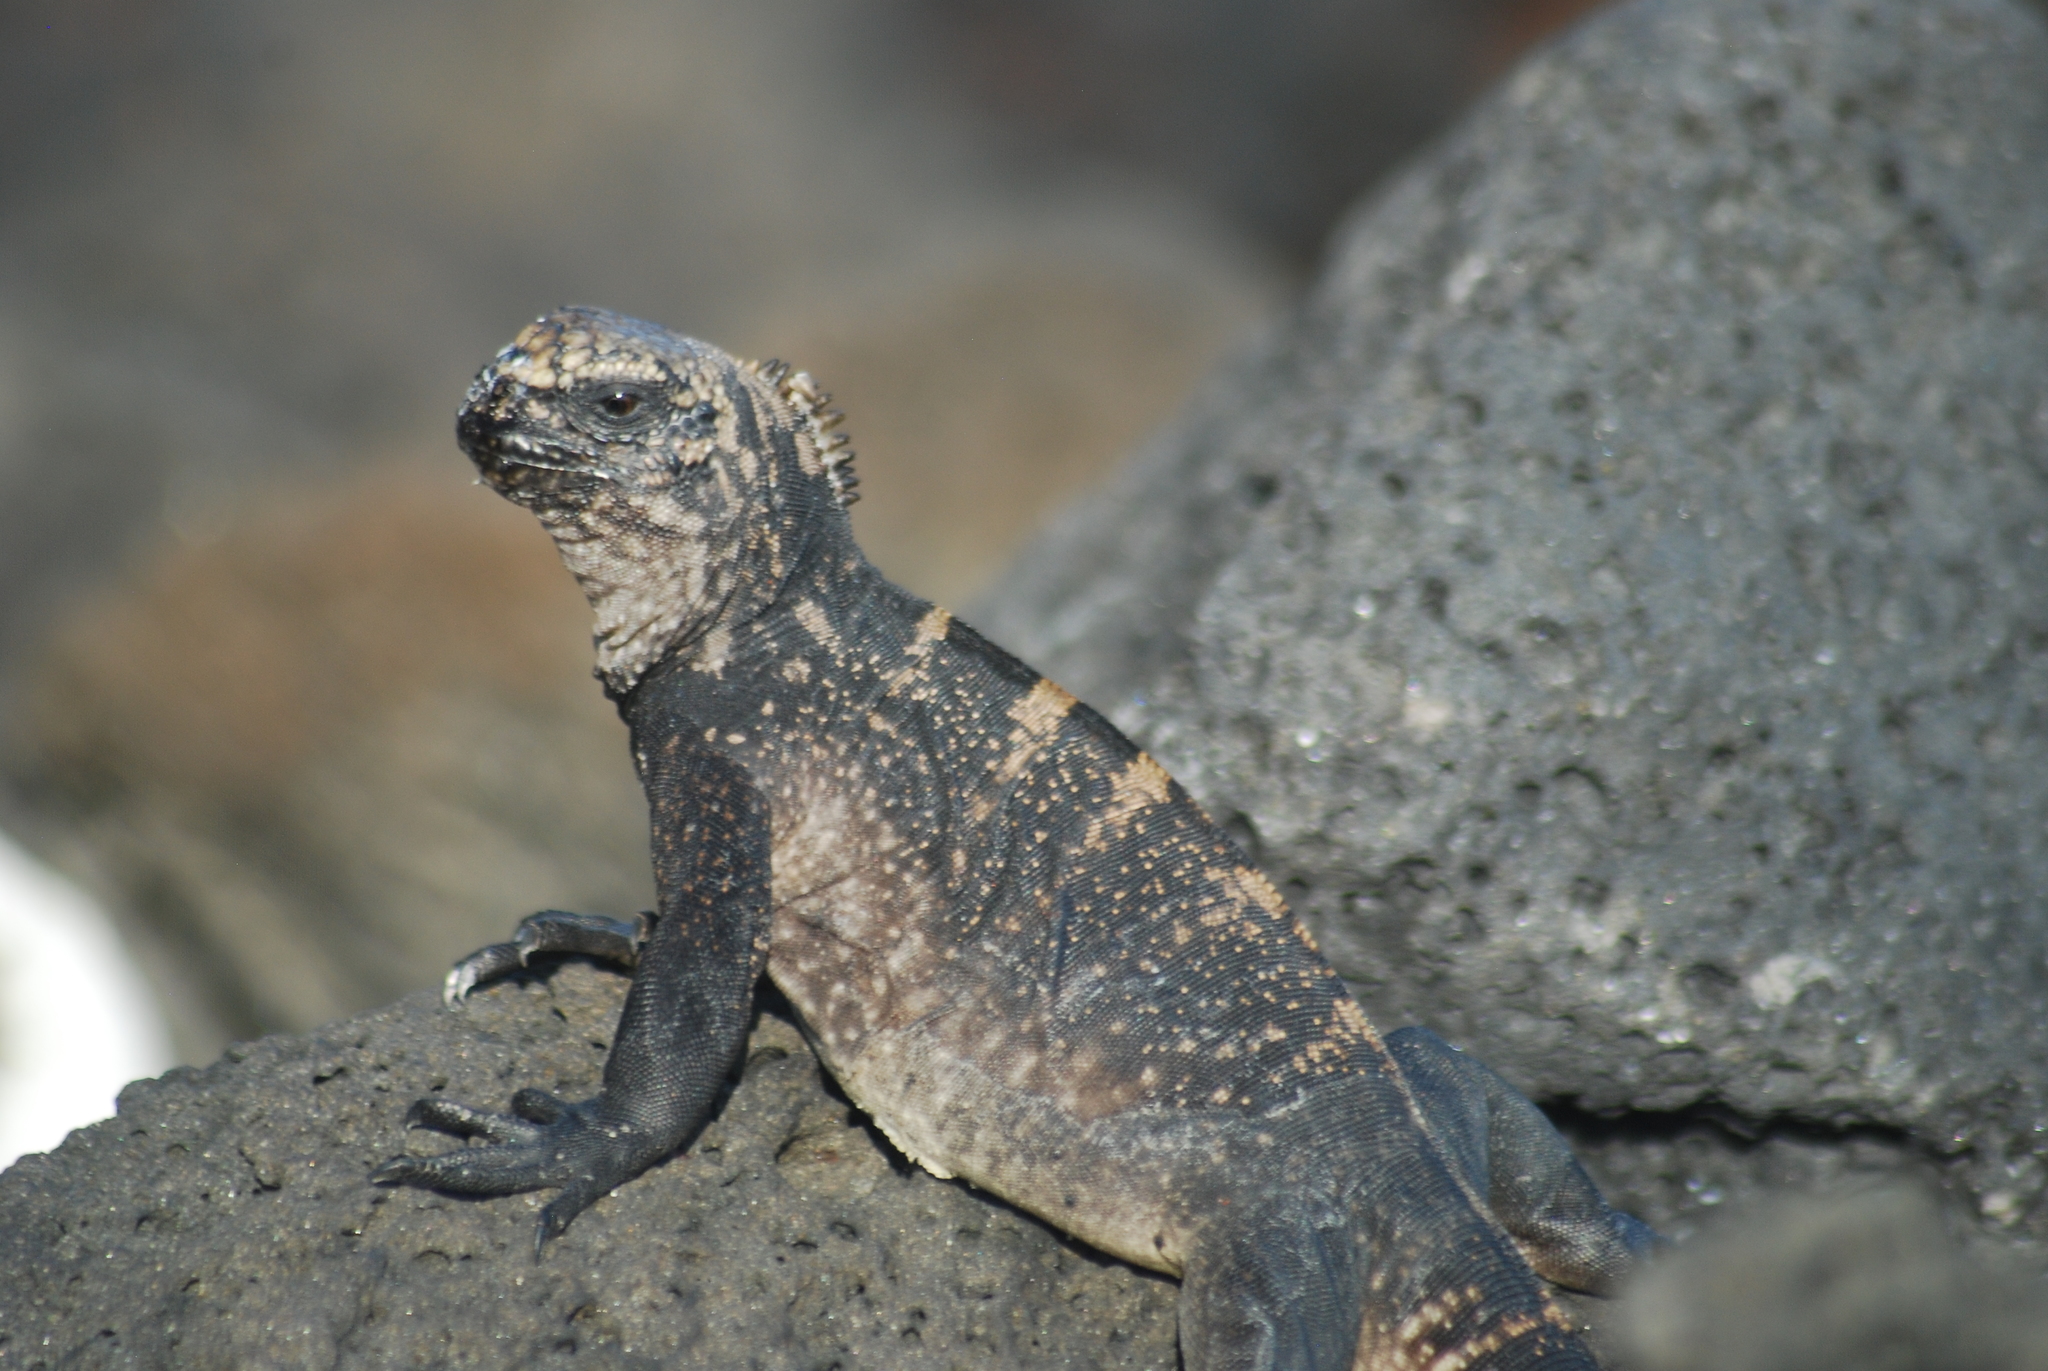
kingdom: Animalia
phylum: Chordata
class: Squamata
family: Iguanidae
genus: Amblyrhynchus
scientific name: Amblyrhynchus cristatus
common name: Marine iguana
